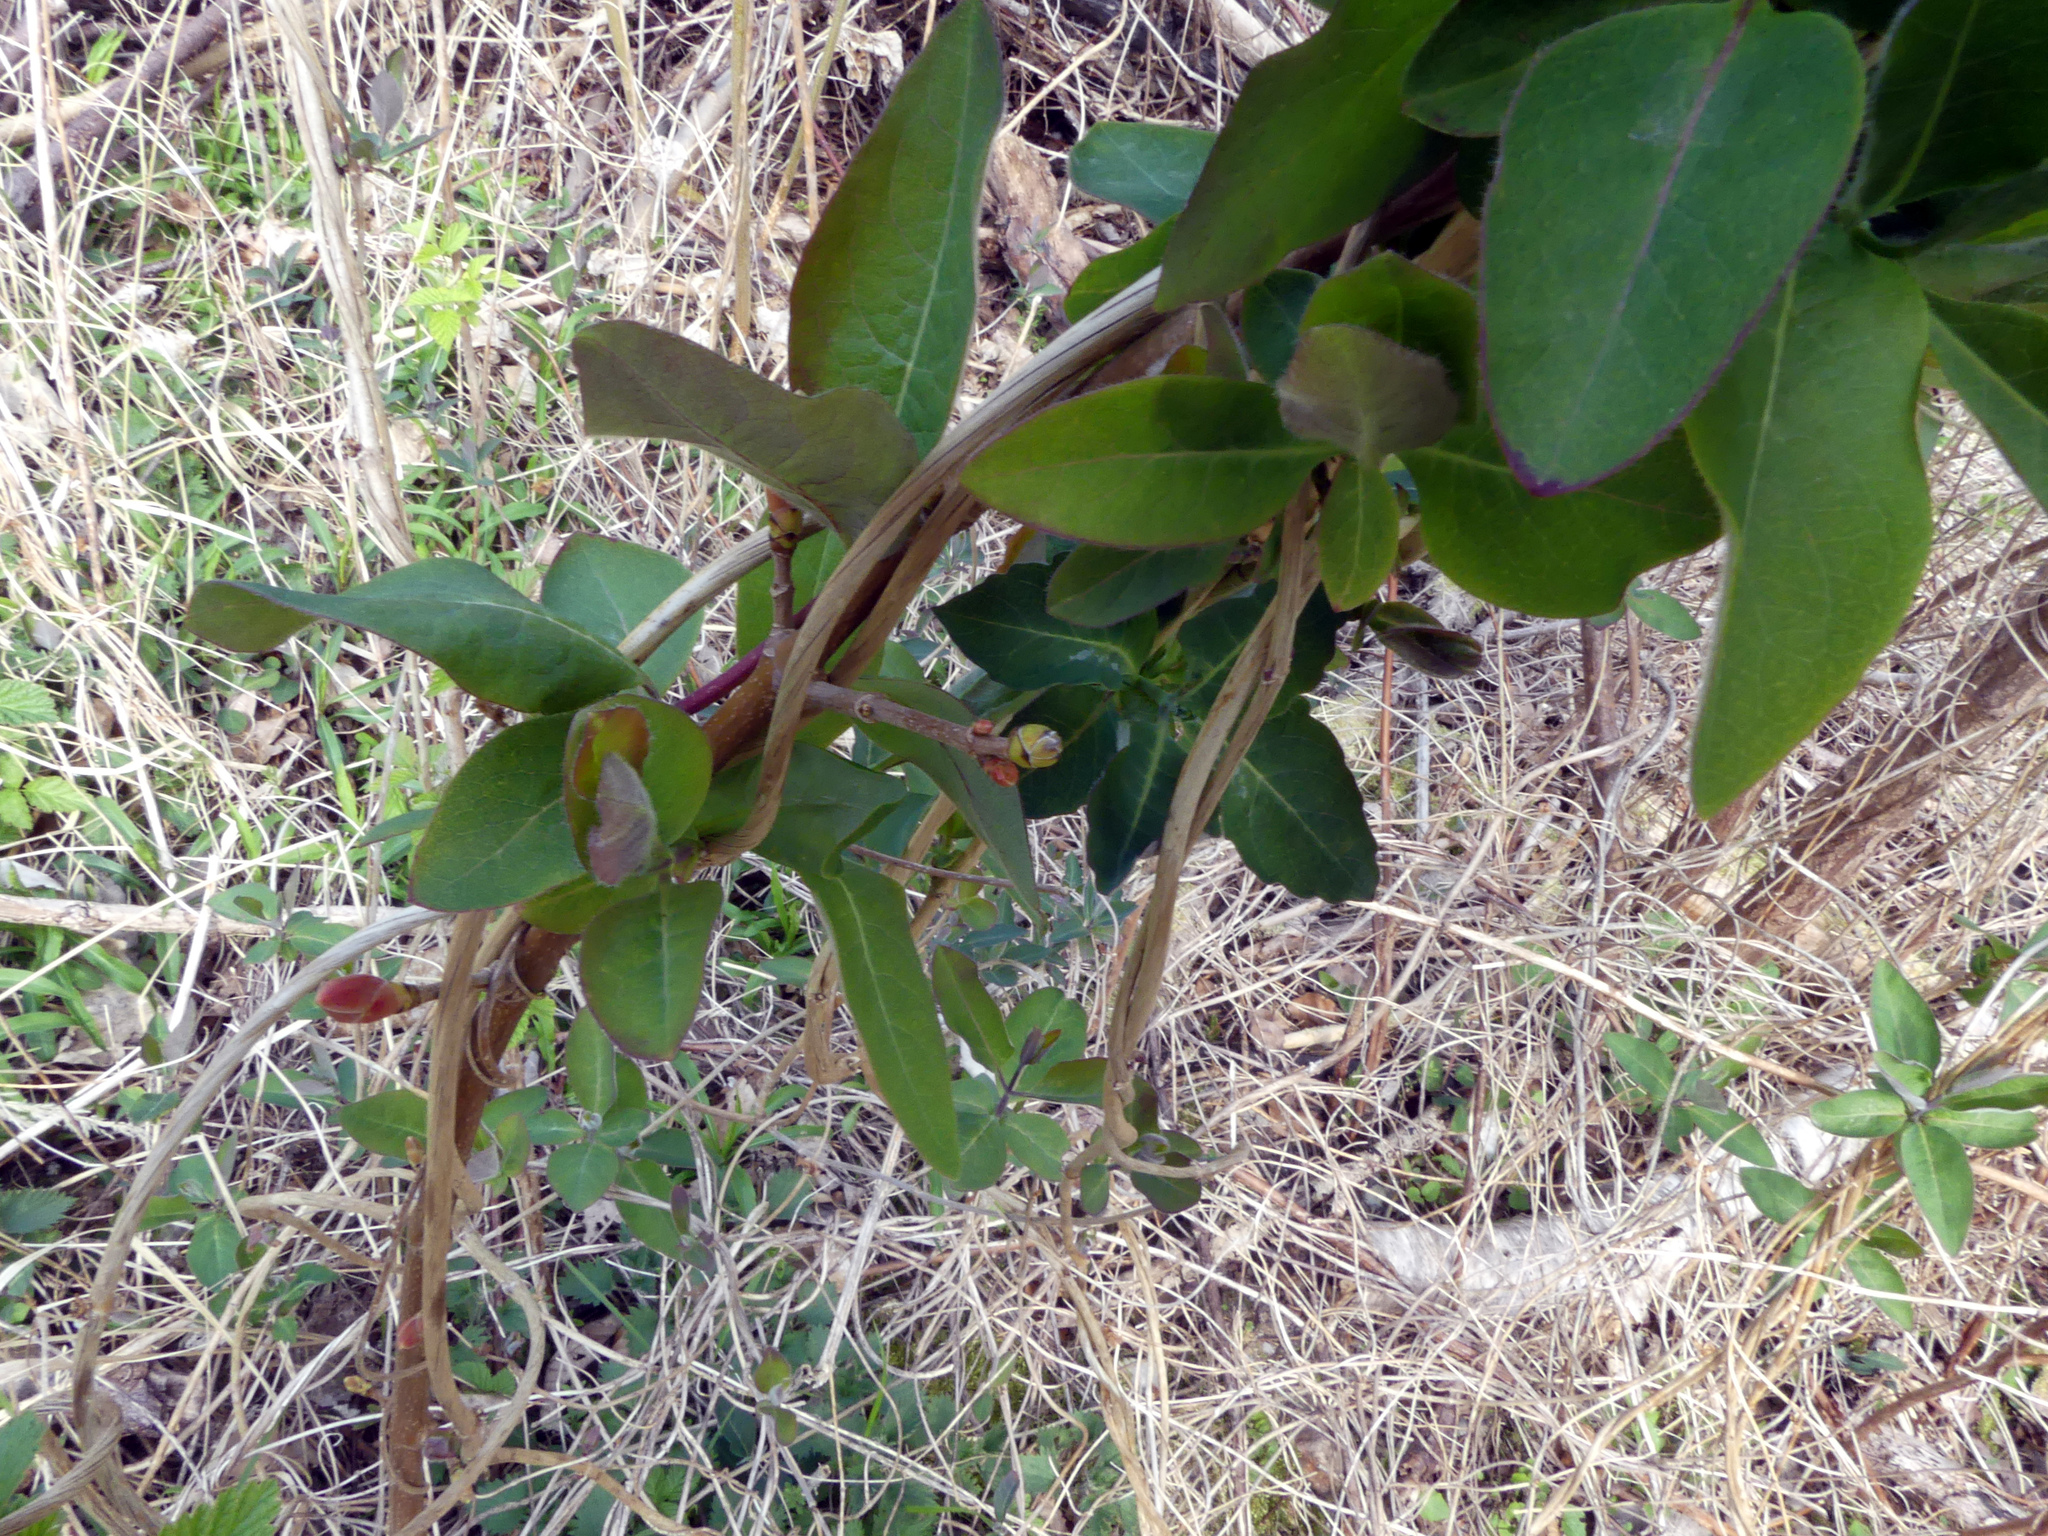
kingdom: Plantae
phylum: Tracheophyta
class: Magnoliopsida
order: Dipsacales
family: Caprifoliaceae
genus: Lonicera
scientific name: Lonicera periclymenum
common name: European honeysuckle
